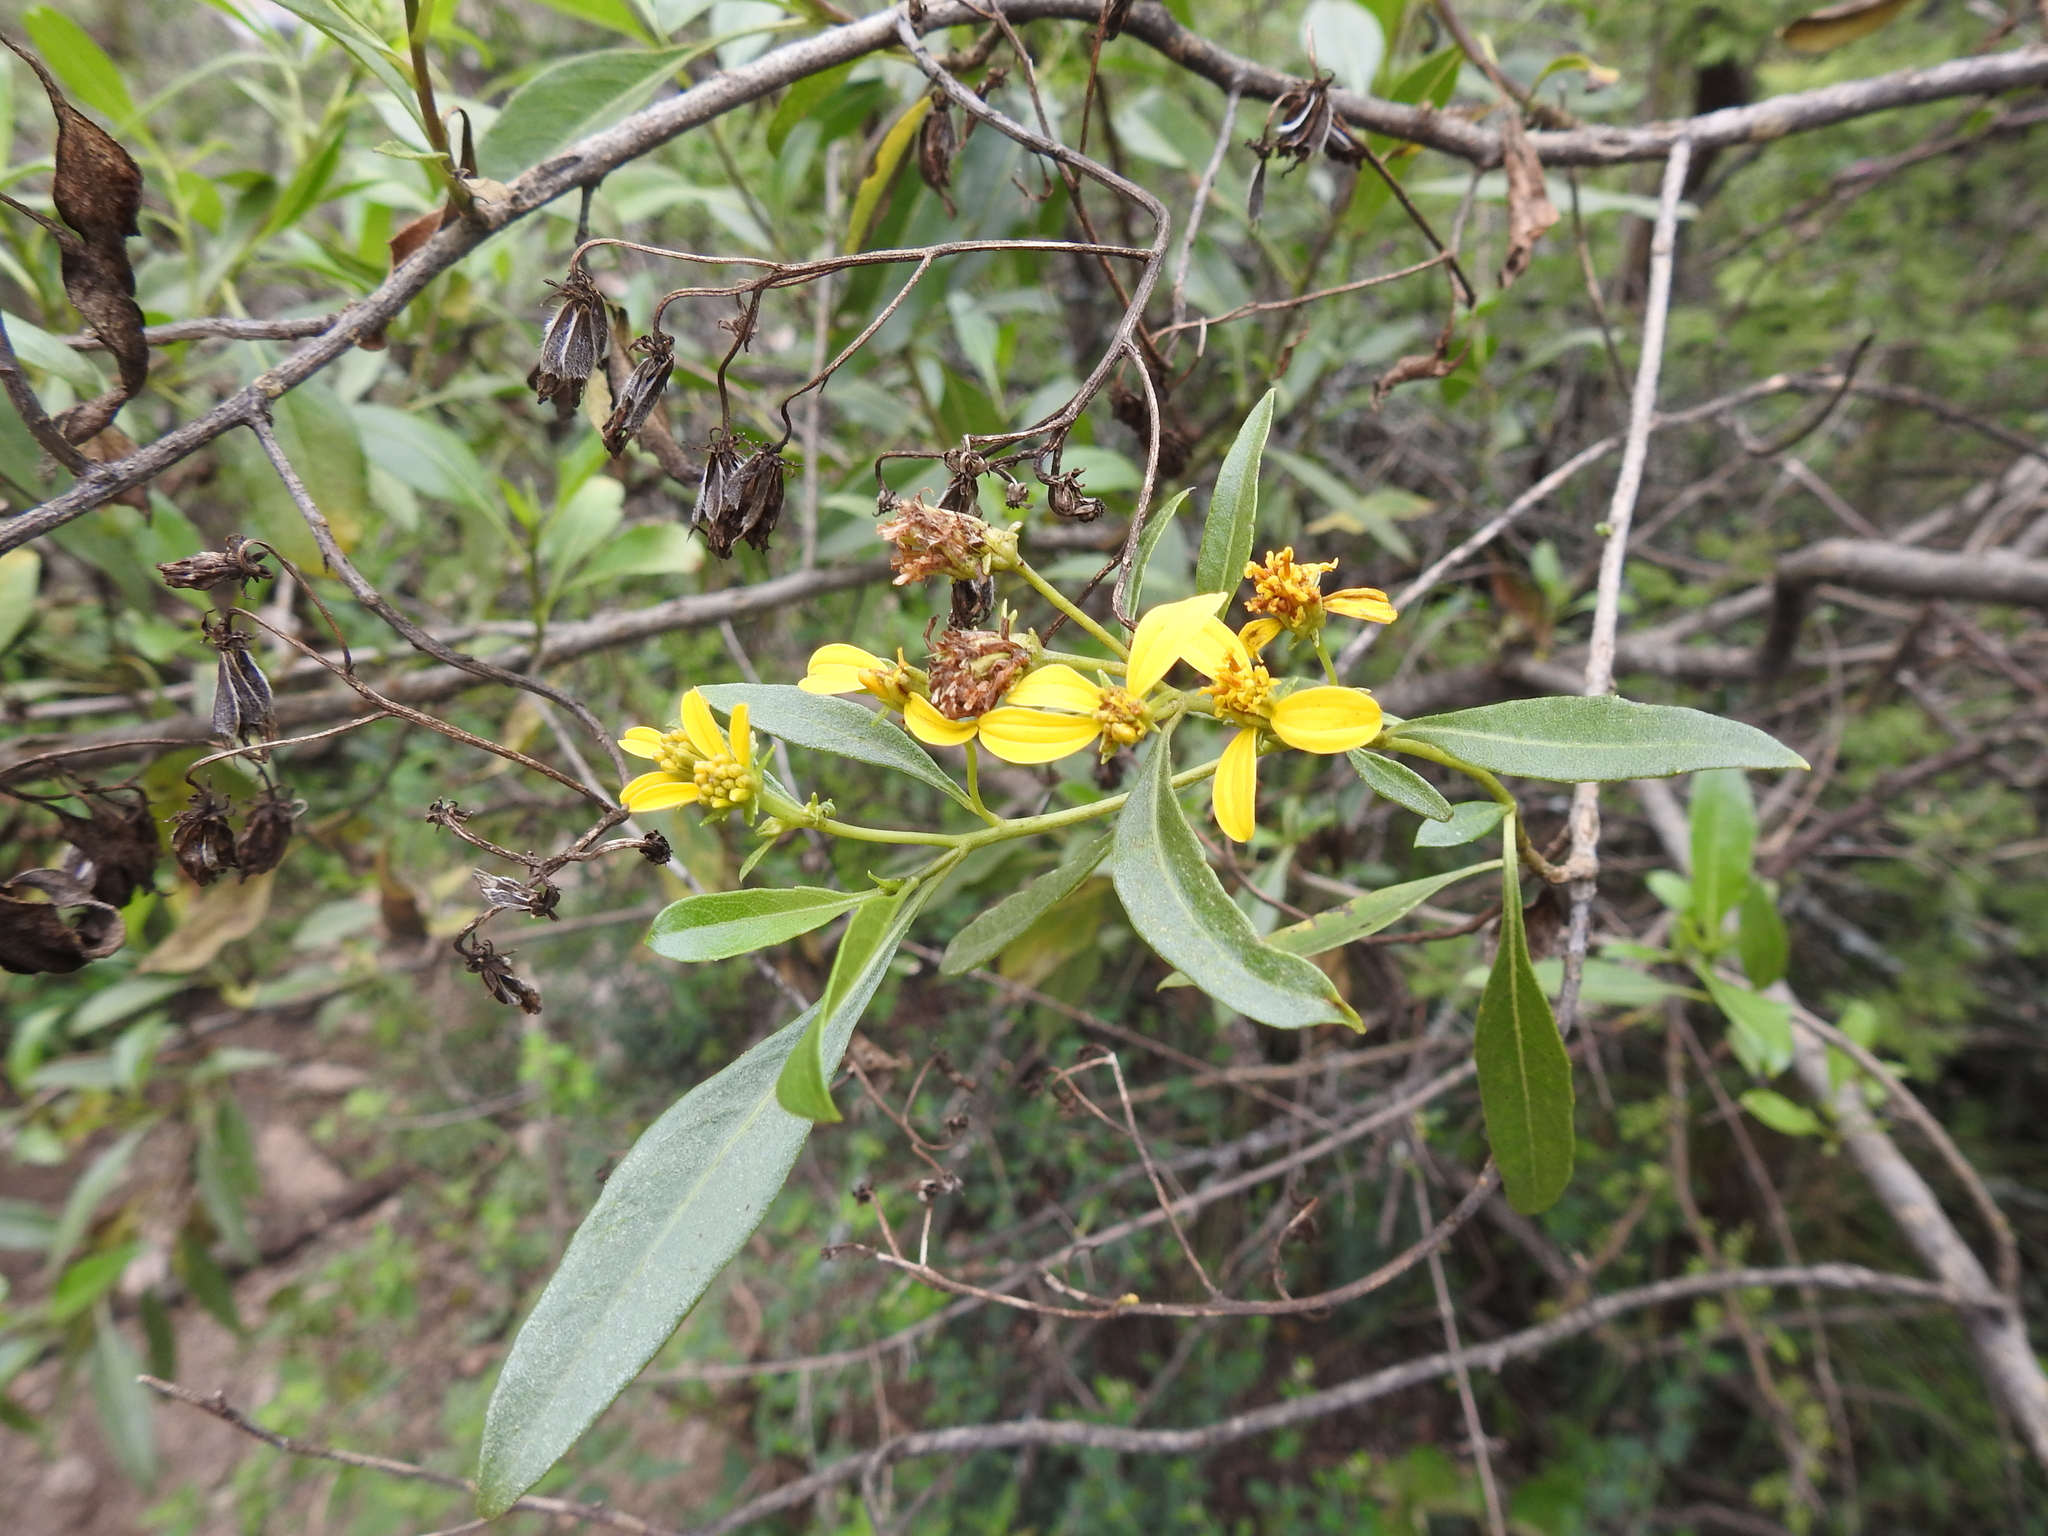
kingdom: Plantae
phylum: Tracheophyta
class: Magnoliopsida
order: Asterales
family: Asteraceae
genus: Flourensia
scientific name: Flourensia thurifera
